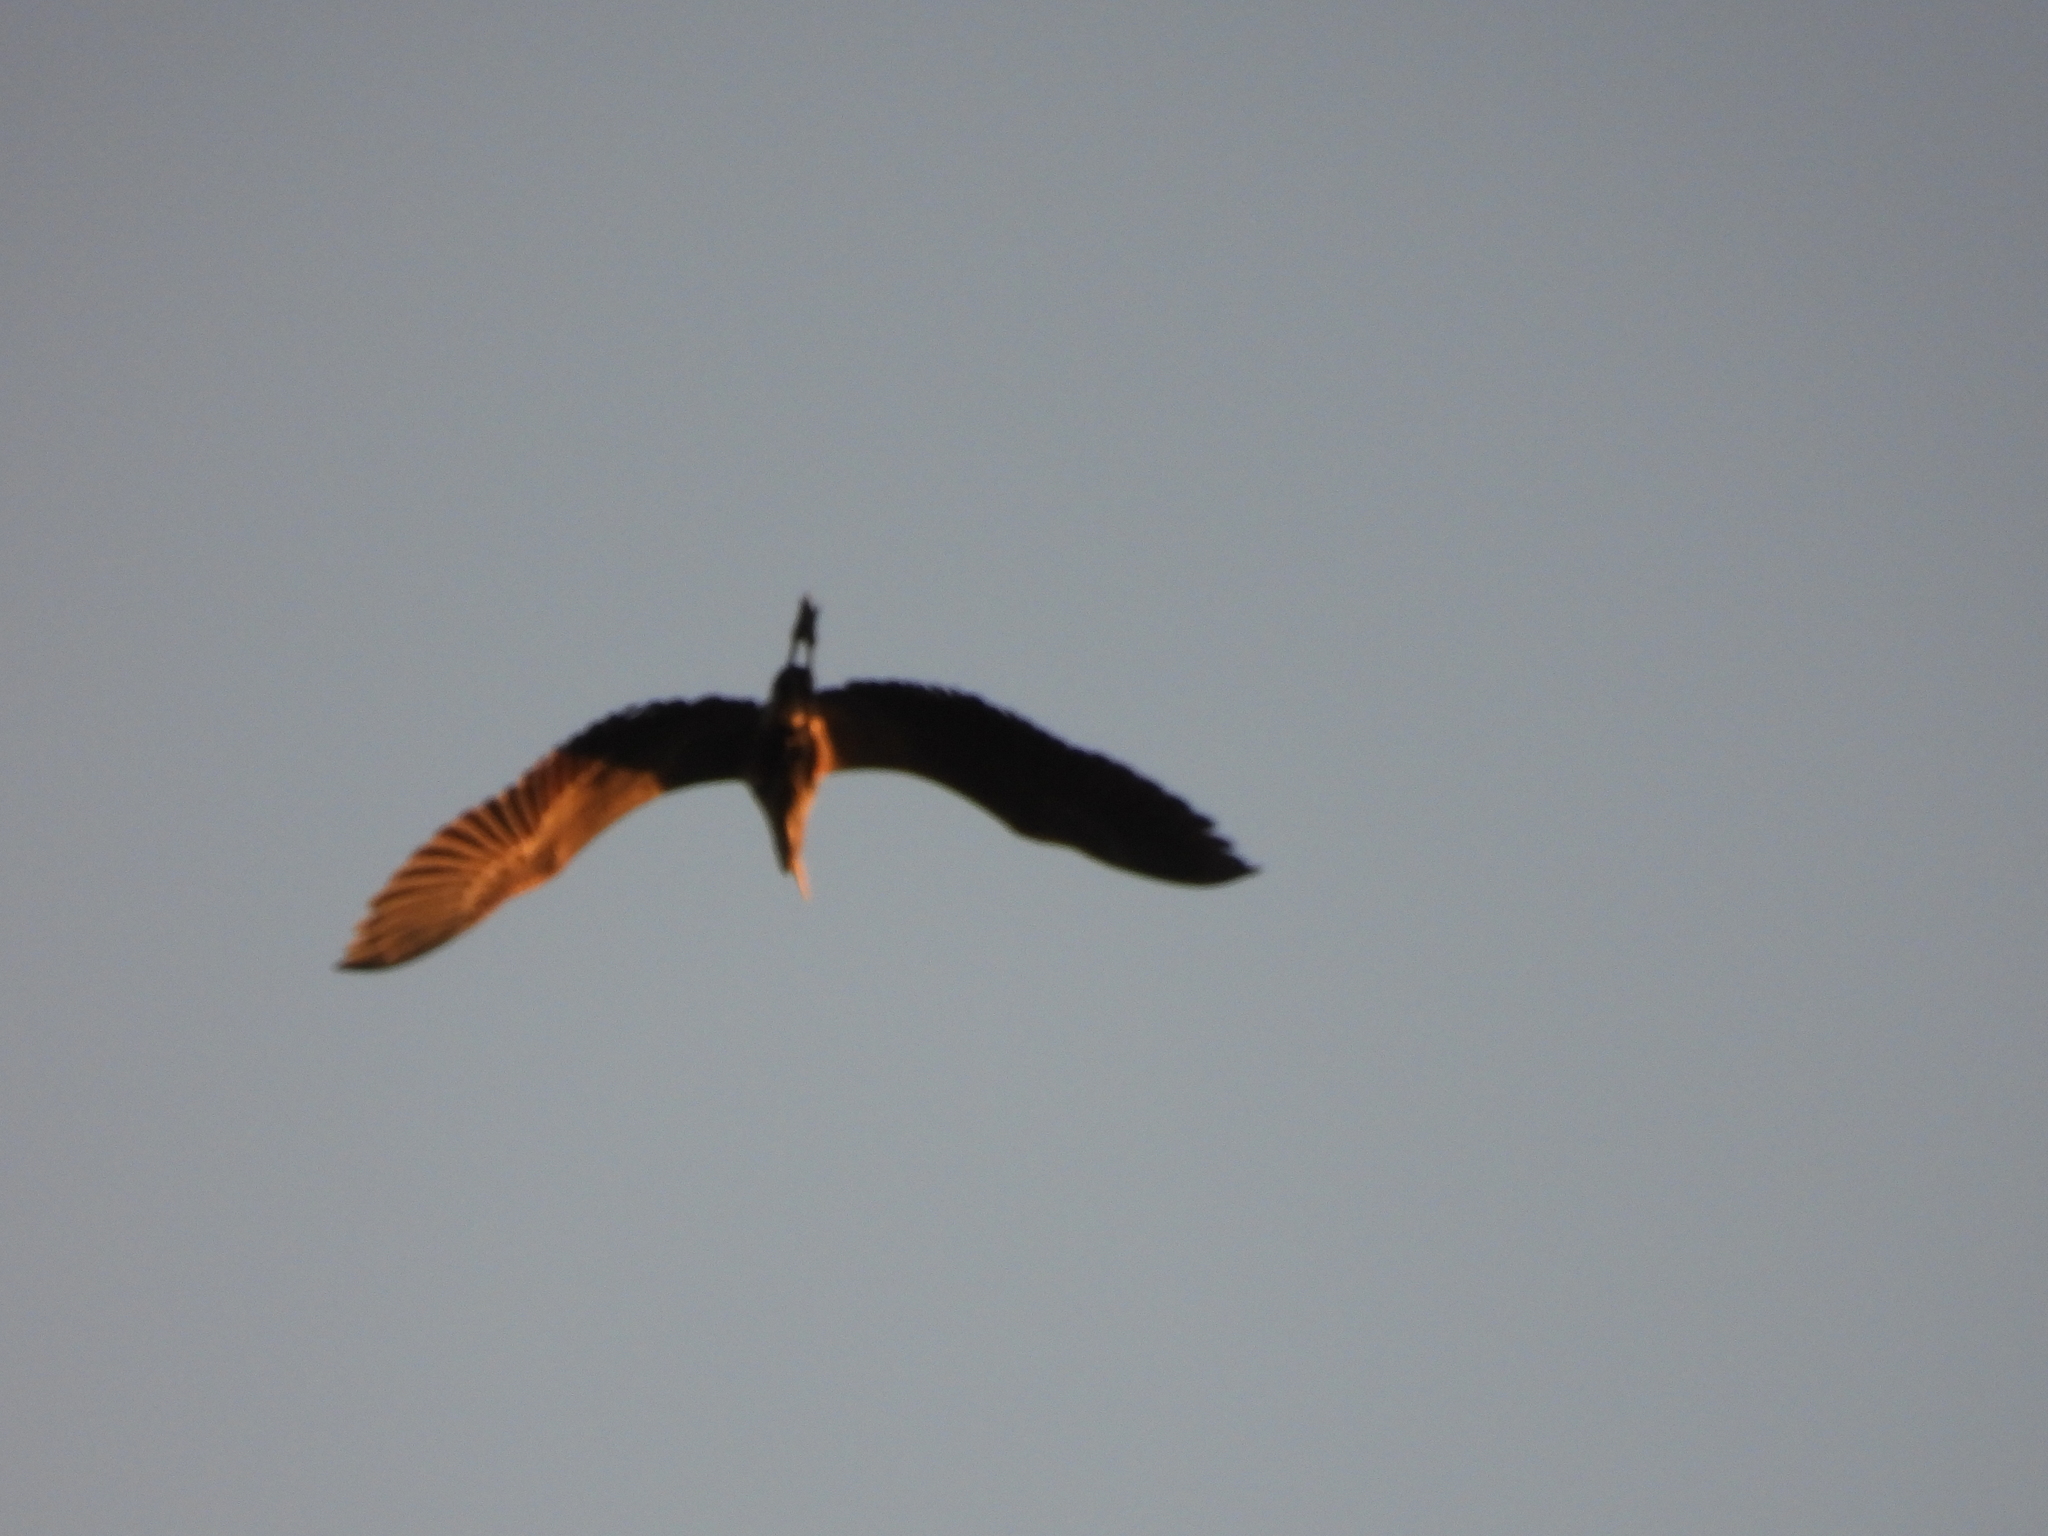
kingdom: Animalia
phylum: Chordata
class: Aves
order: Pelecaniformes
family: Ardeidae
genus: Ardea
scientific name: Ardea herodias
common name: Great blue heron
